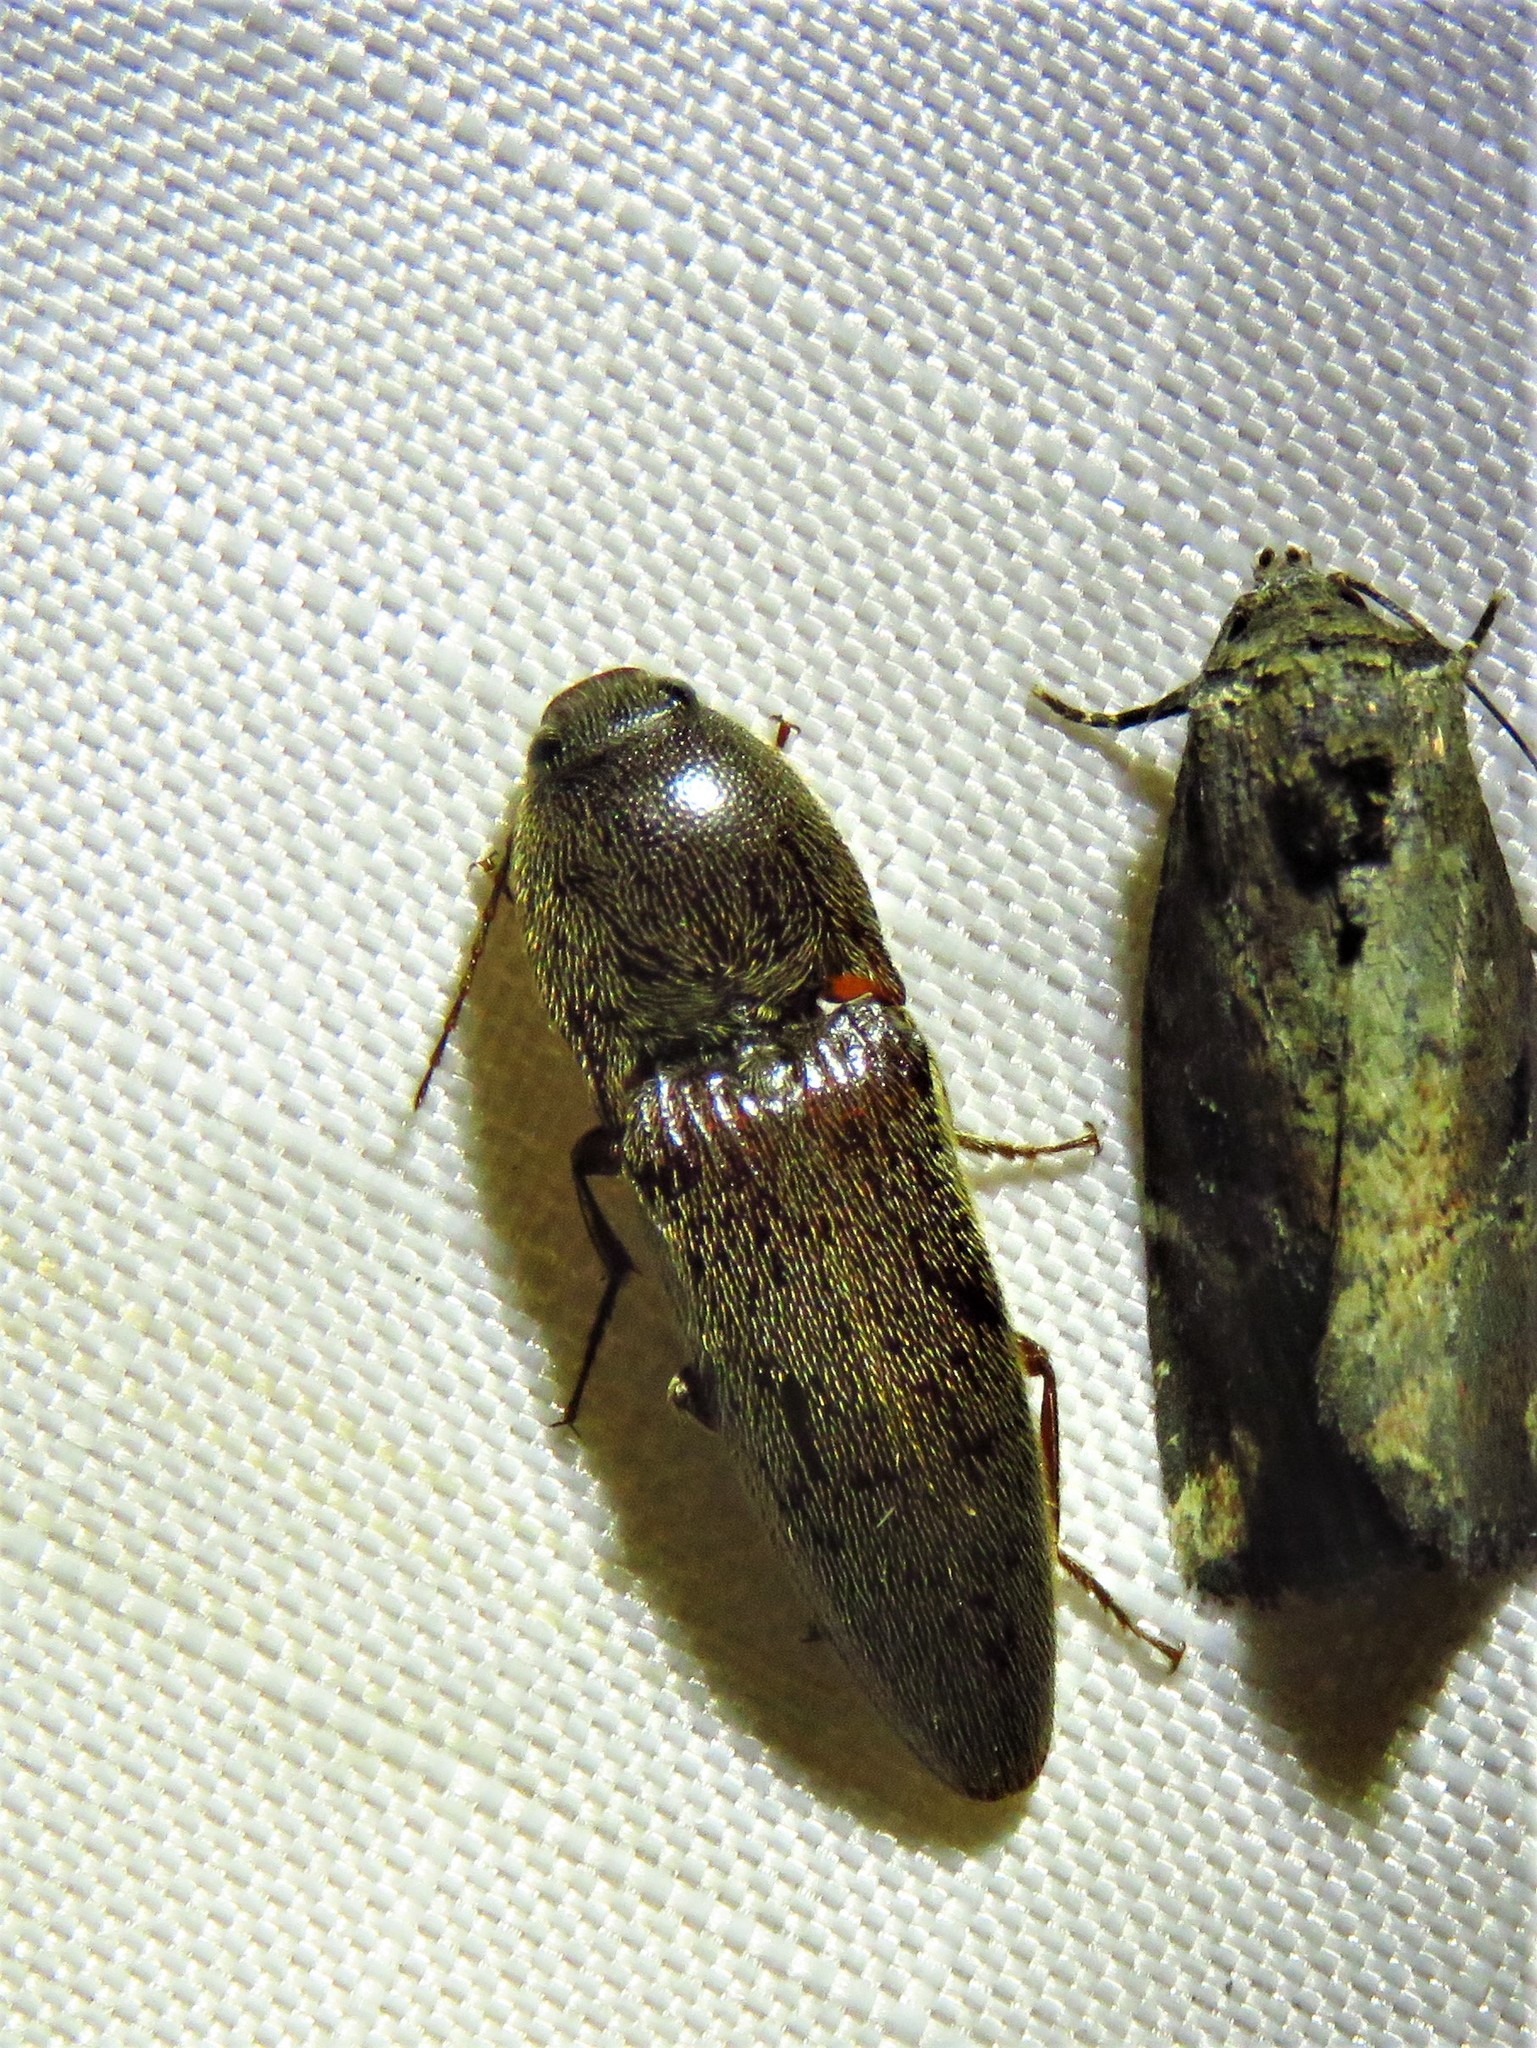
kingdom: Animalia
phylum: Arthropoda
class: Insecta
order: Coleoptera
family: Elateridae
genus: Melanotus
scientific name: Melanotus
